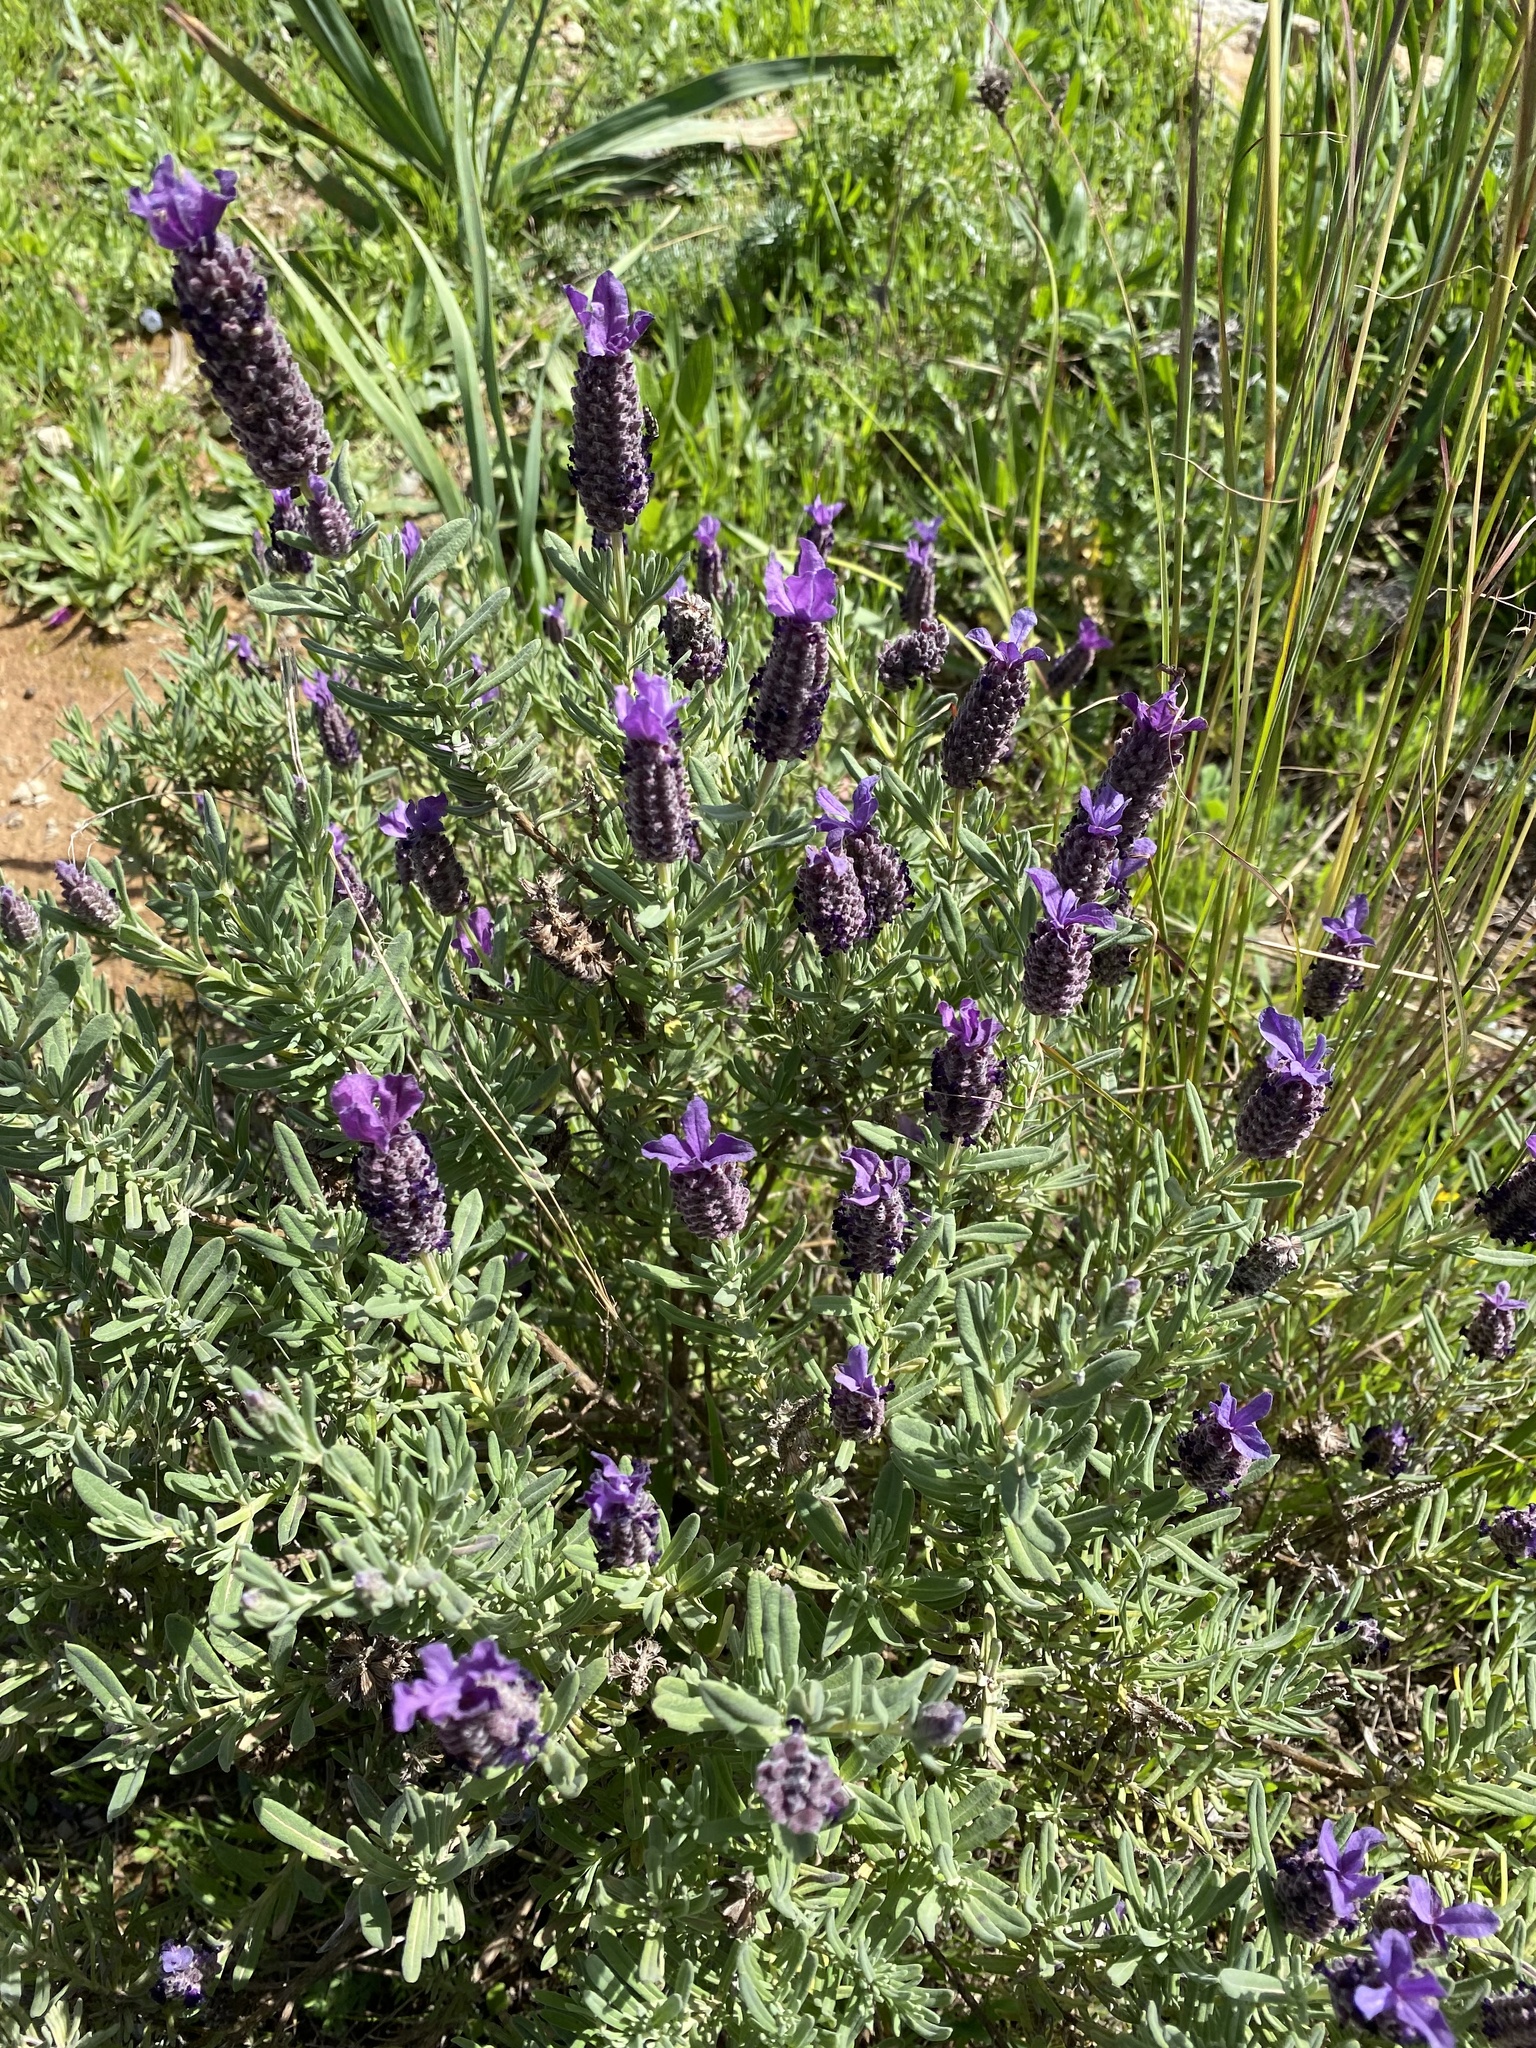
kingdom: Plantae
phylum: Tracheophyta
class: Magnoliopsida
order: Lamiales
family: Lamiaceae
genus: Lavandula
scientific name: Lavandula stoechas
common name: French lavender
